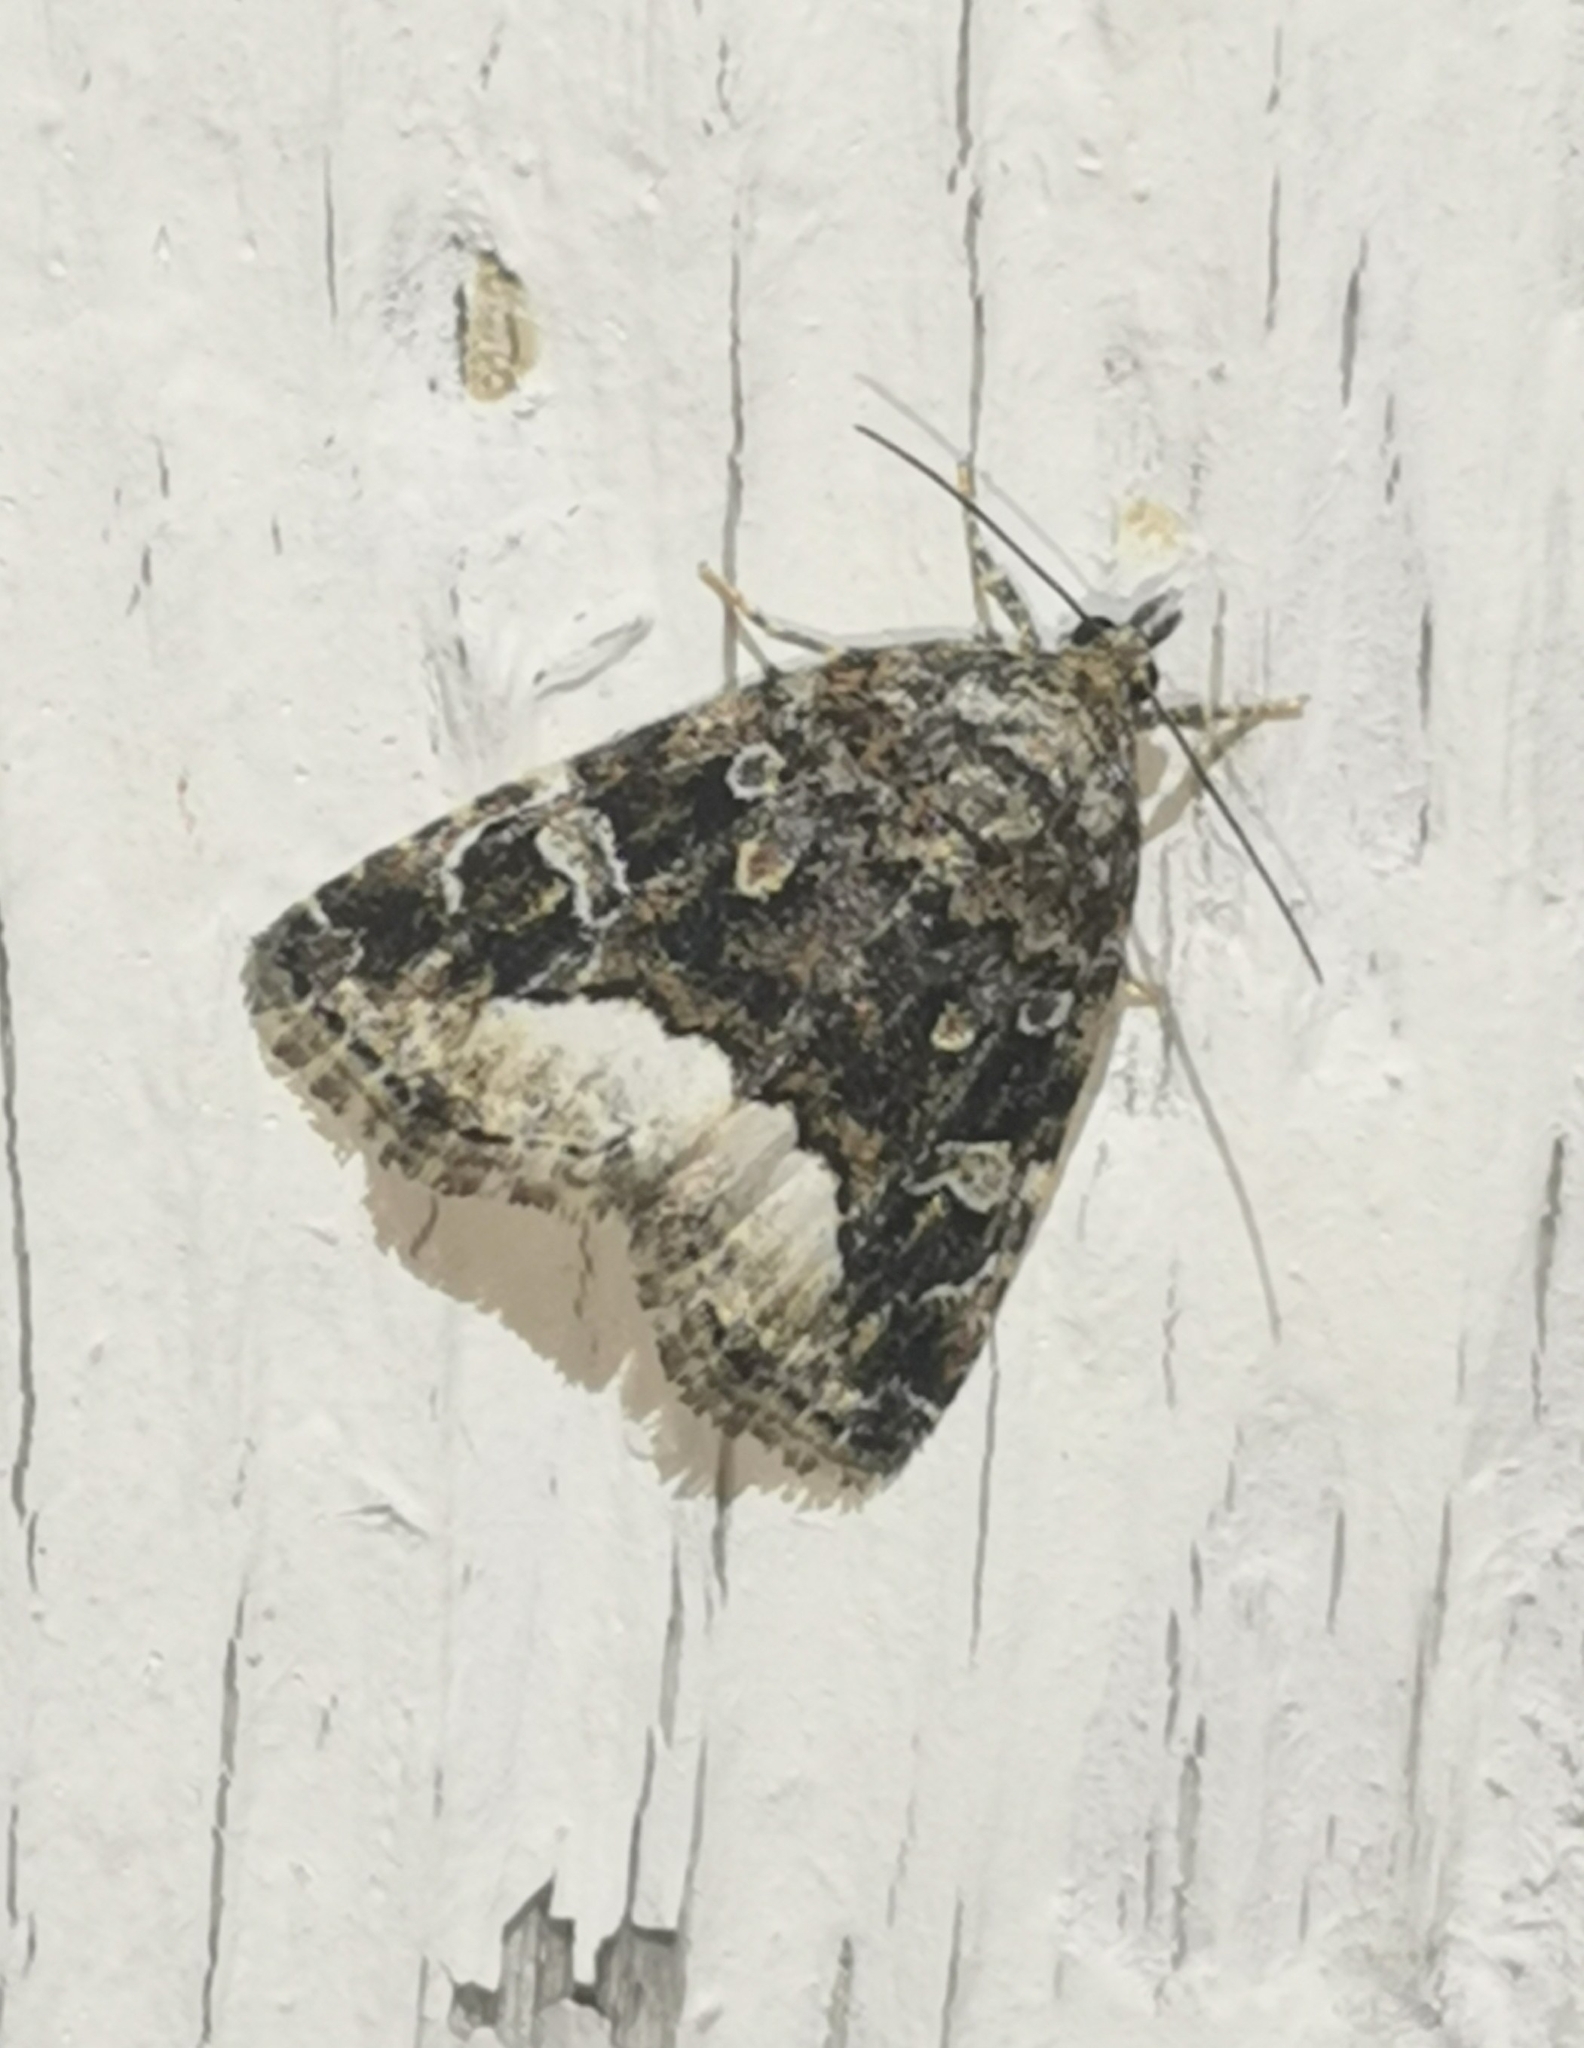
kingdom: Animalia
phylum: Arthropoda
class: Insecta
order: Lepidoptera
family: Noctuidae
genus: Deltote
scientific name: Deltote pygarga
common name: Marbled white spot
